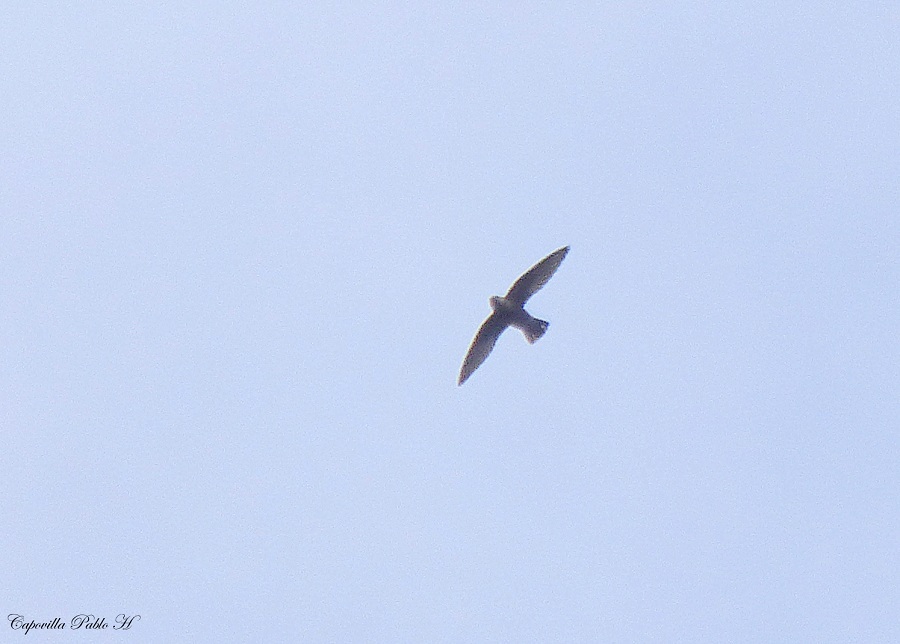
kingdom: Animalia
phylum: Chordata
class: Aves
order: Apodiformes
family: Apodidae
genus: Chaetura
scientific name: Chaetura meridionalis
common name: Sick's swift
